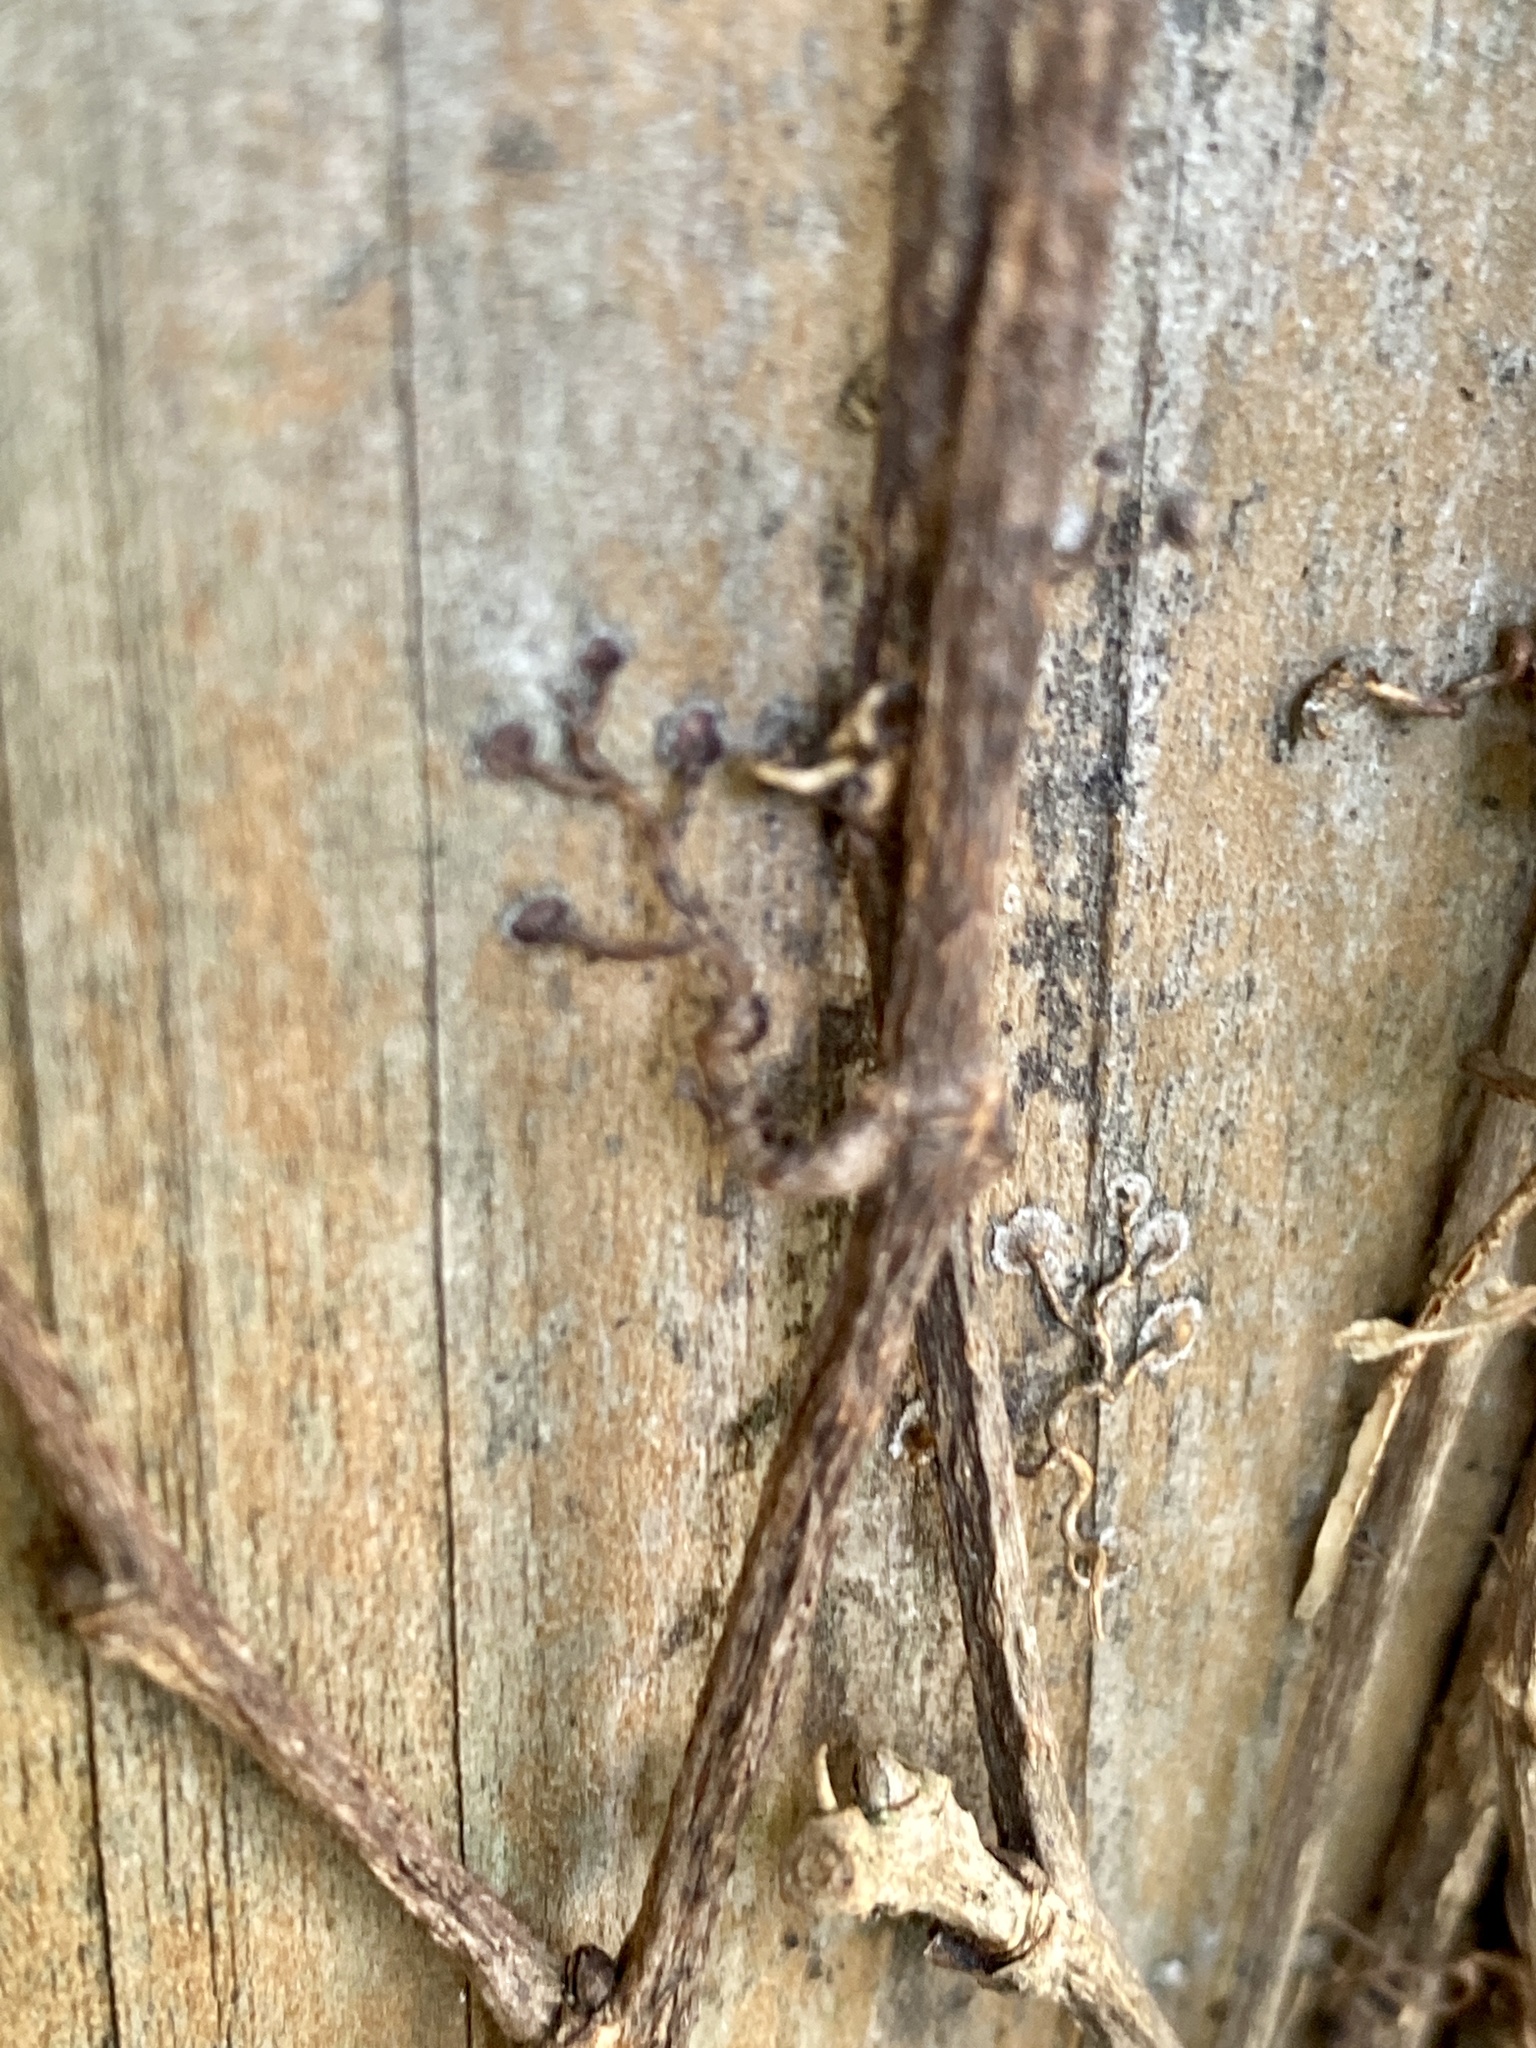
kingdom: Plantae
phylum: Tracheophyta
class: Magnoliopsida
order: Vitales
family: Vitaceae
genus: Parthenocissus
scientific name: Parthenocissus tricuspidata
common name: Boston ivy
